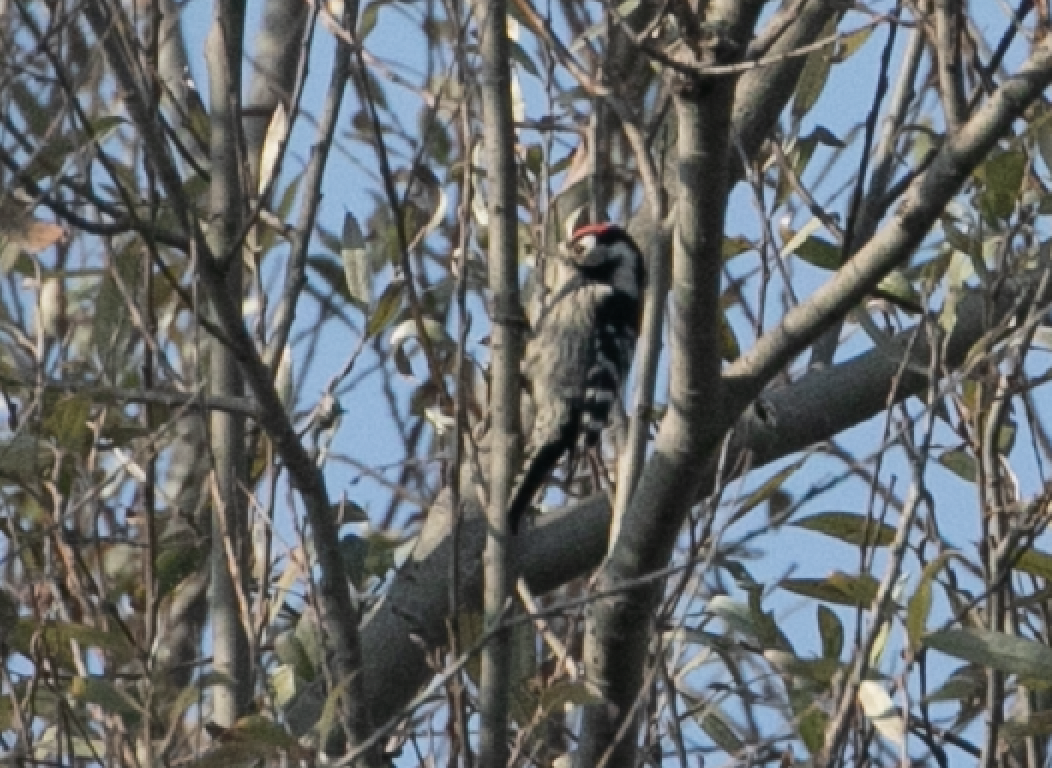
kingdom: Animalia
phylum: Chordata
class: Aves
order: Piciformes
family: Picidae
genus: Dryobates
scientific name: Dryobates minor
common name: Lesser spotted woodpecker
